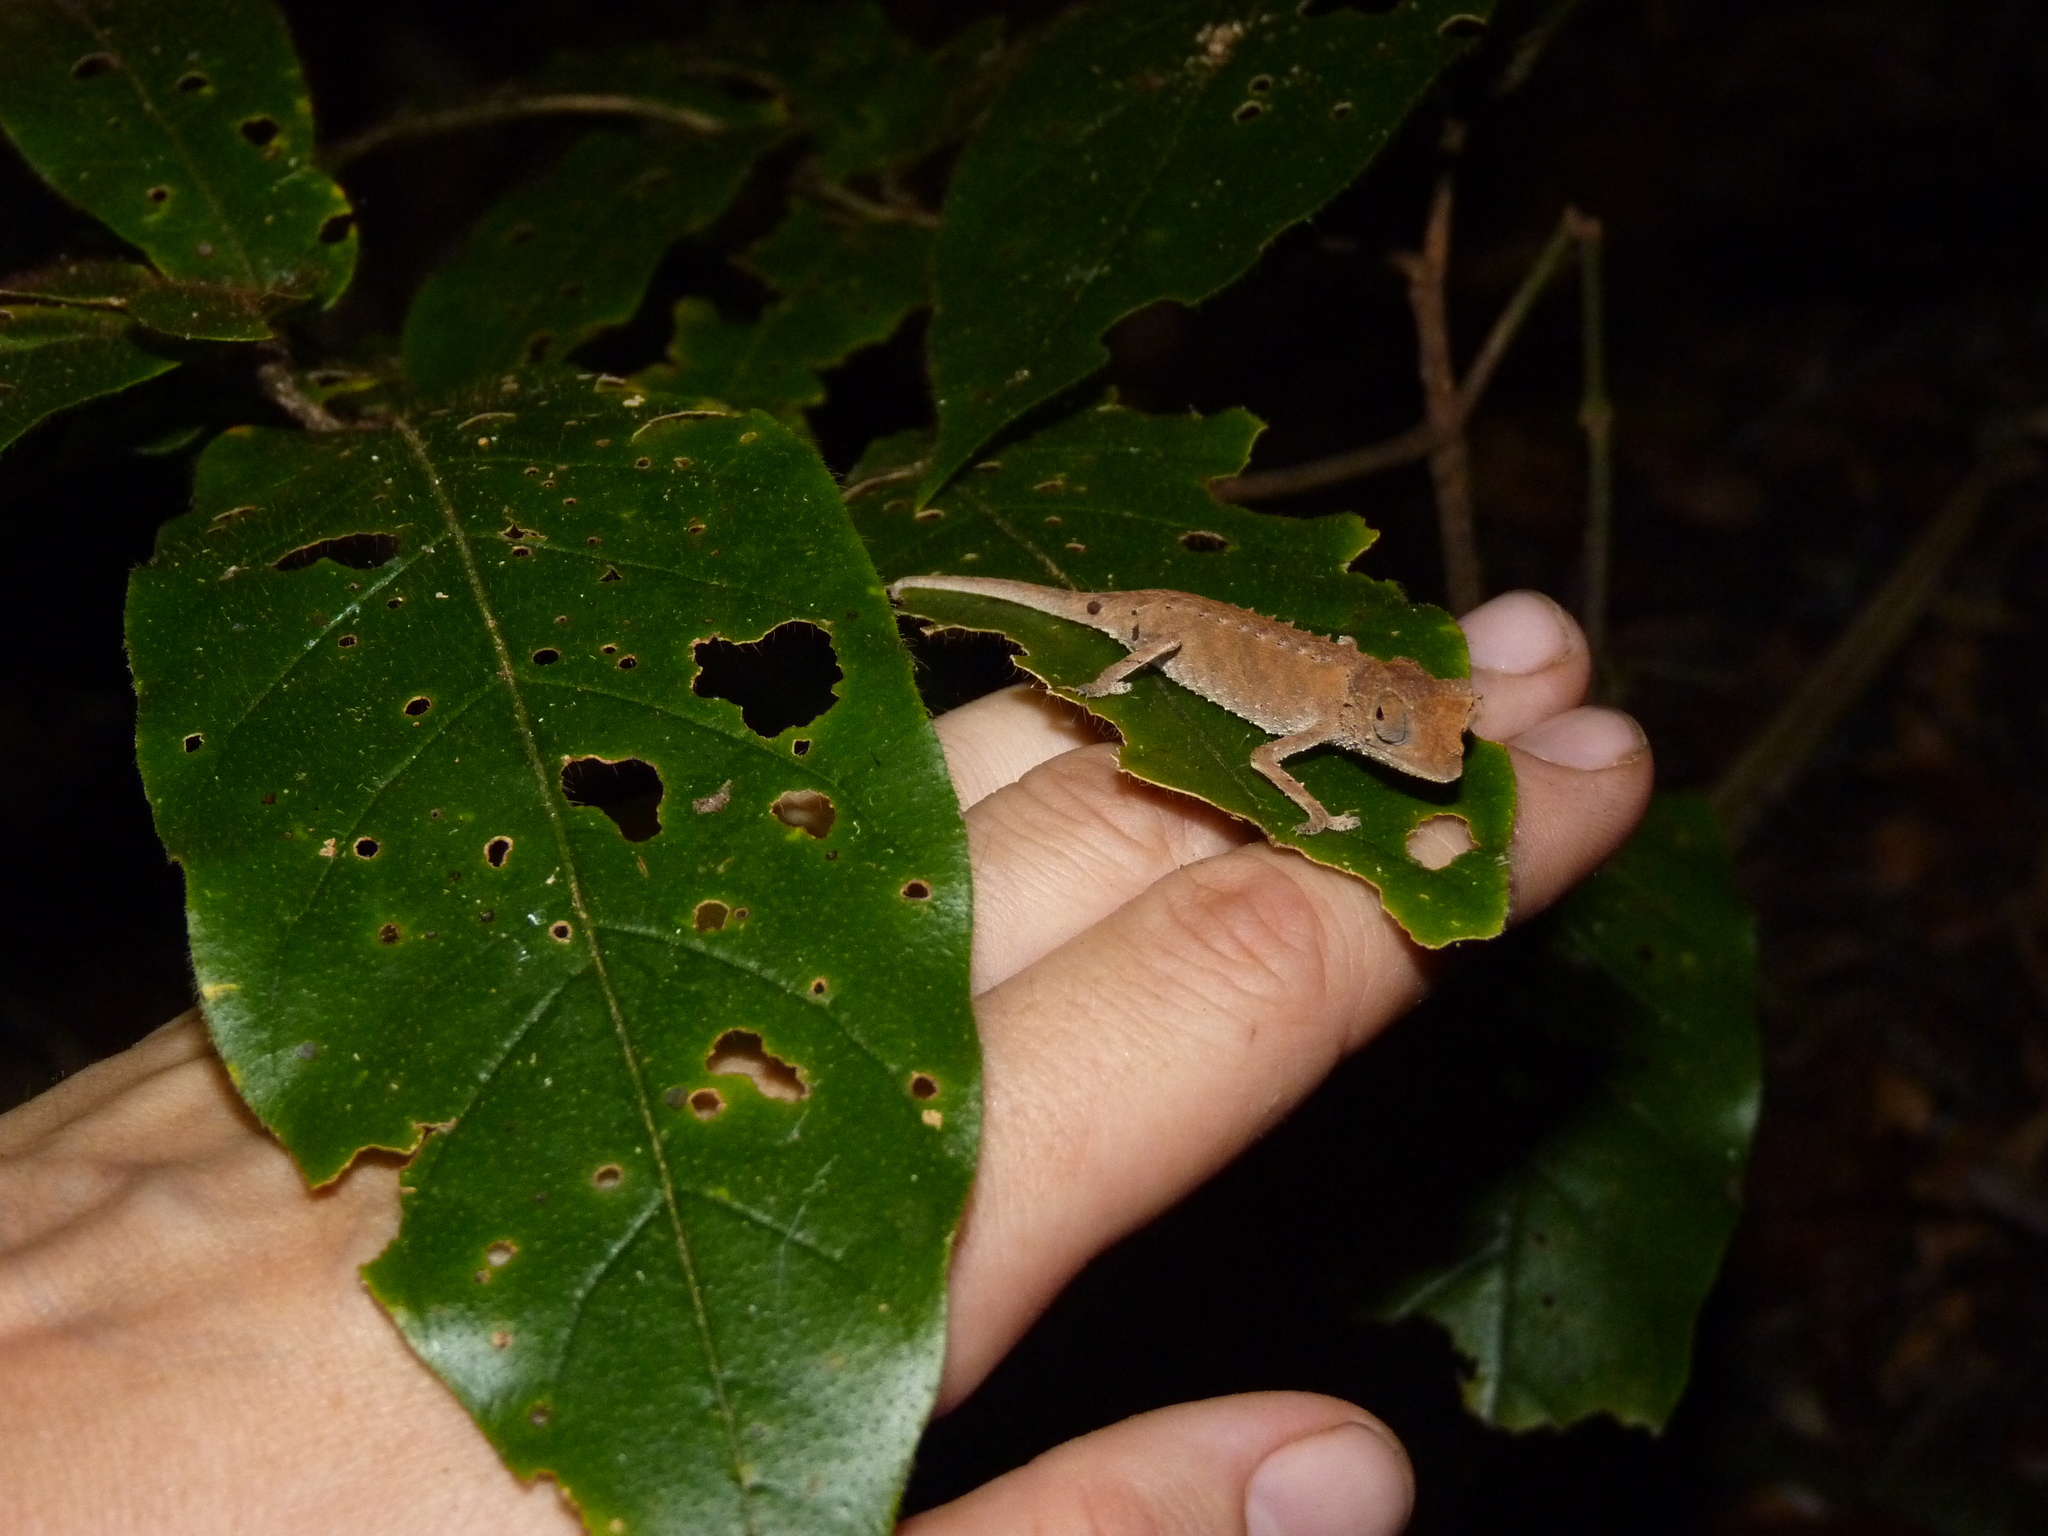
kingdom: Animalia
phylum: Chordata
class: Squamata
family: Chamaeleonidae
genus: Brookesia
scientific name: Brookesia stumpffi
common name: Plated leaf chameleon
